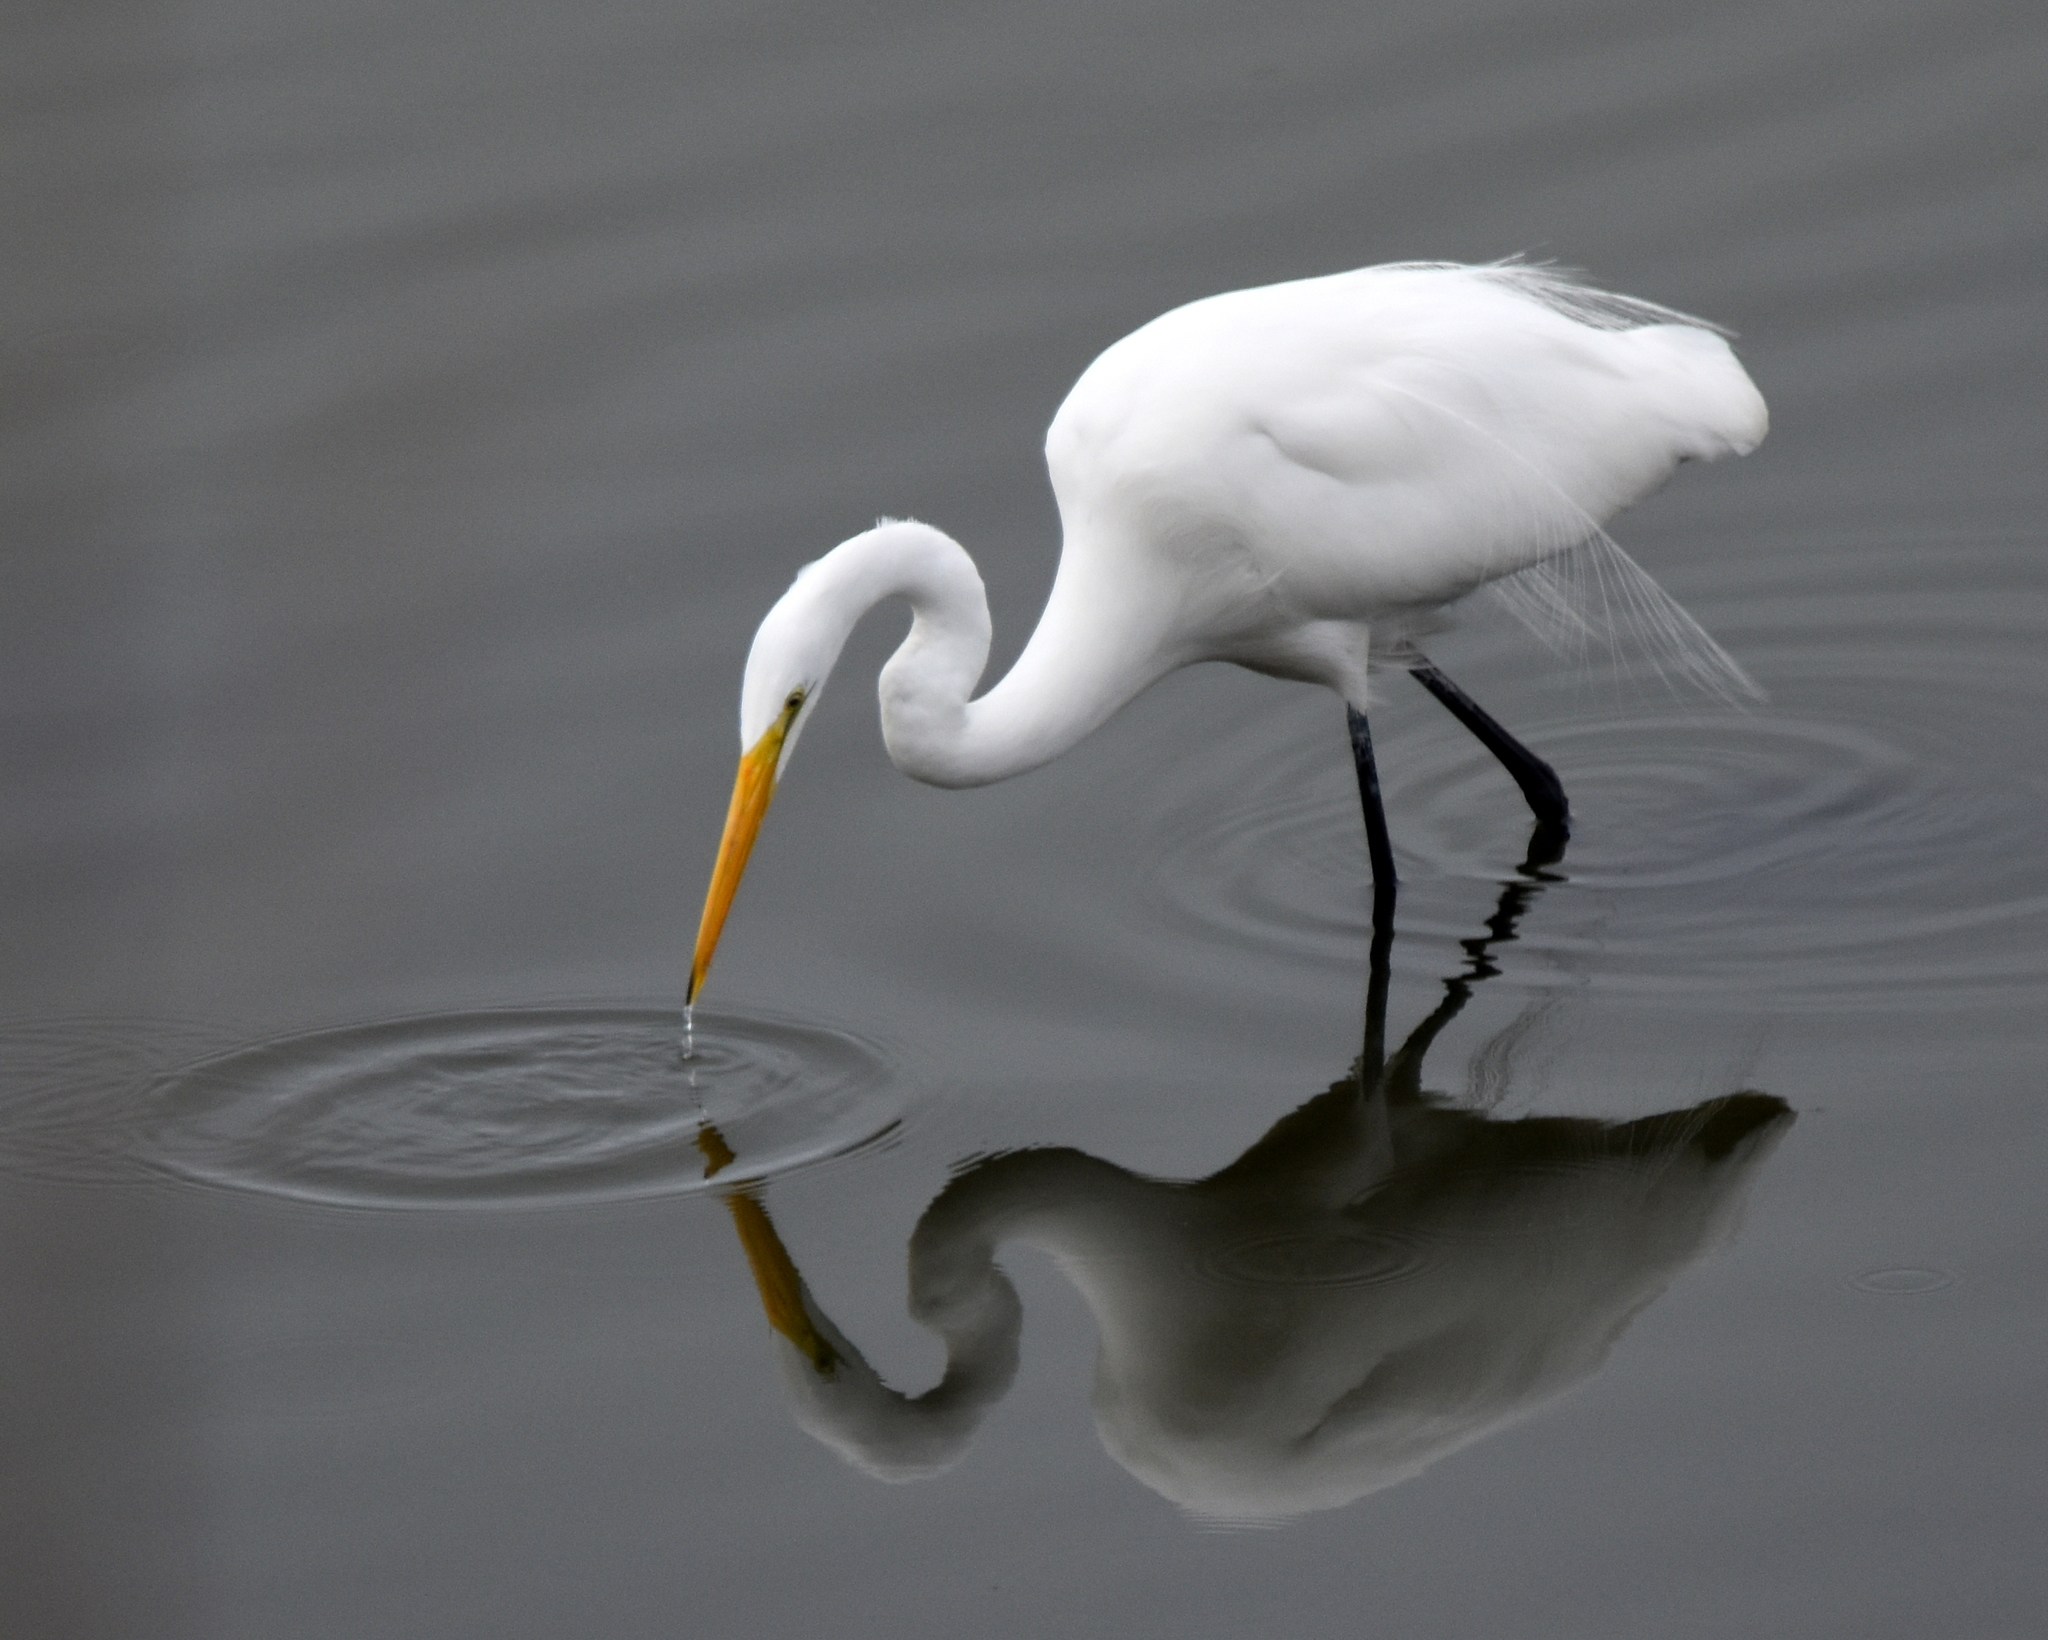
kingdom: Animalia
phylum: Chordata
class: Aves
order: Pelecaniformes
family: Ardeidae
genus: Ardea
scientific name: Ardea alba
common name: Great egret
